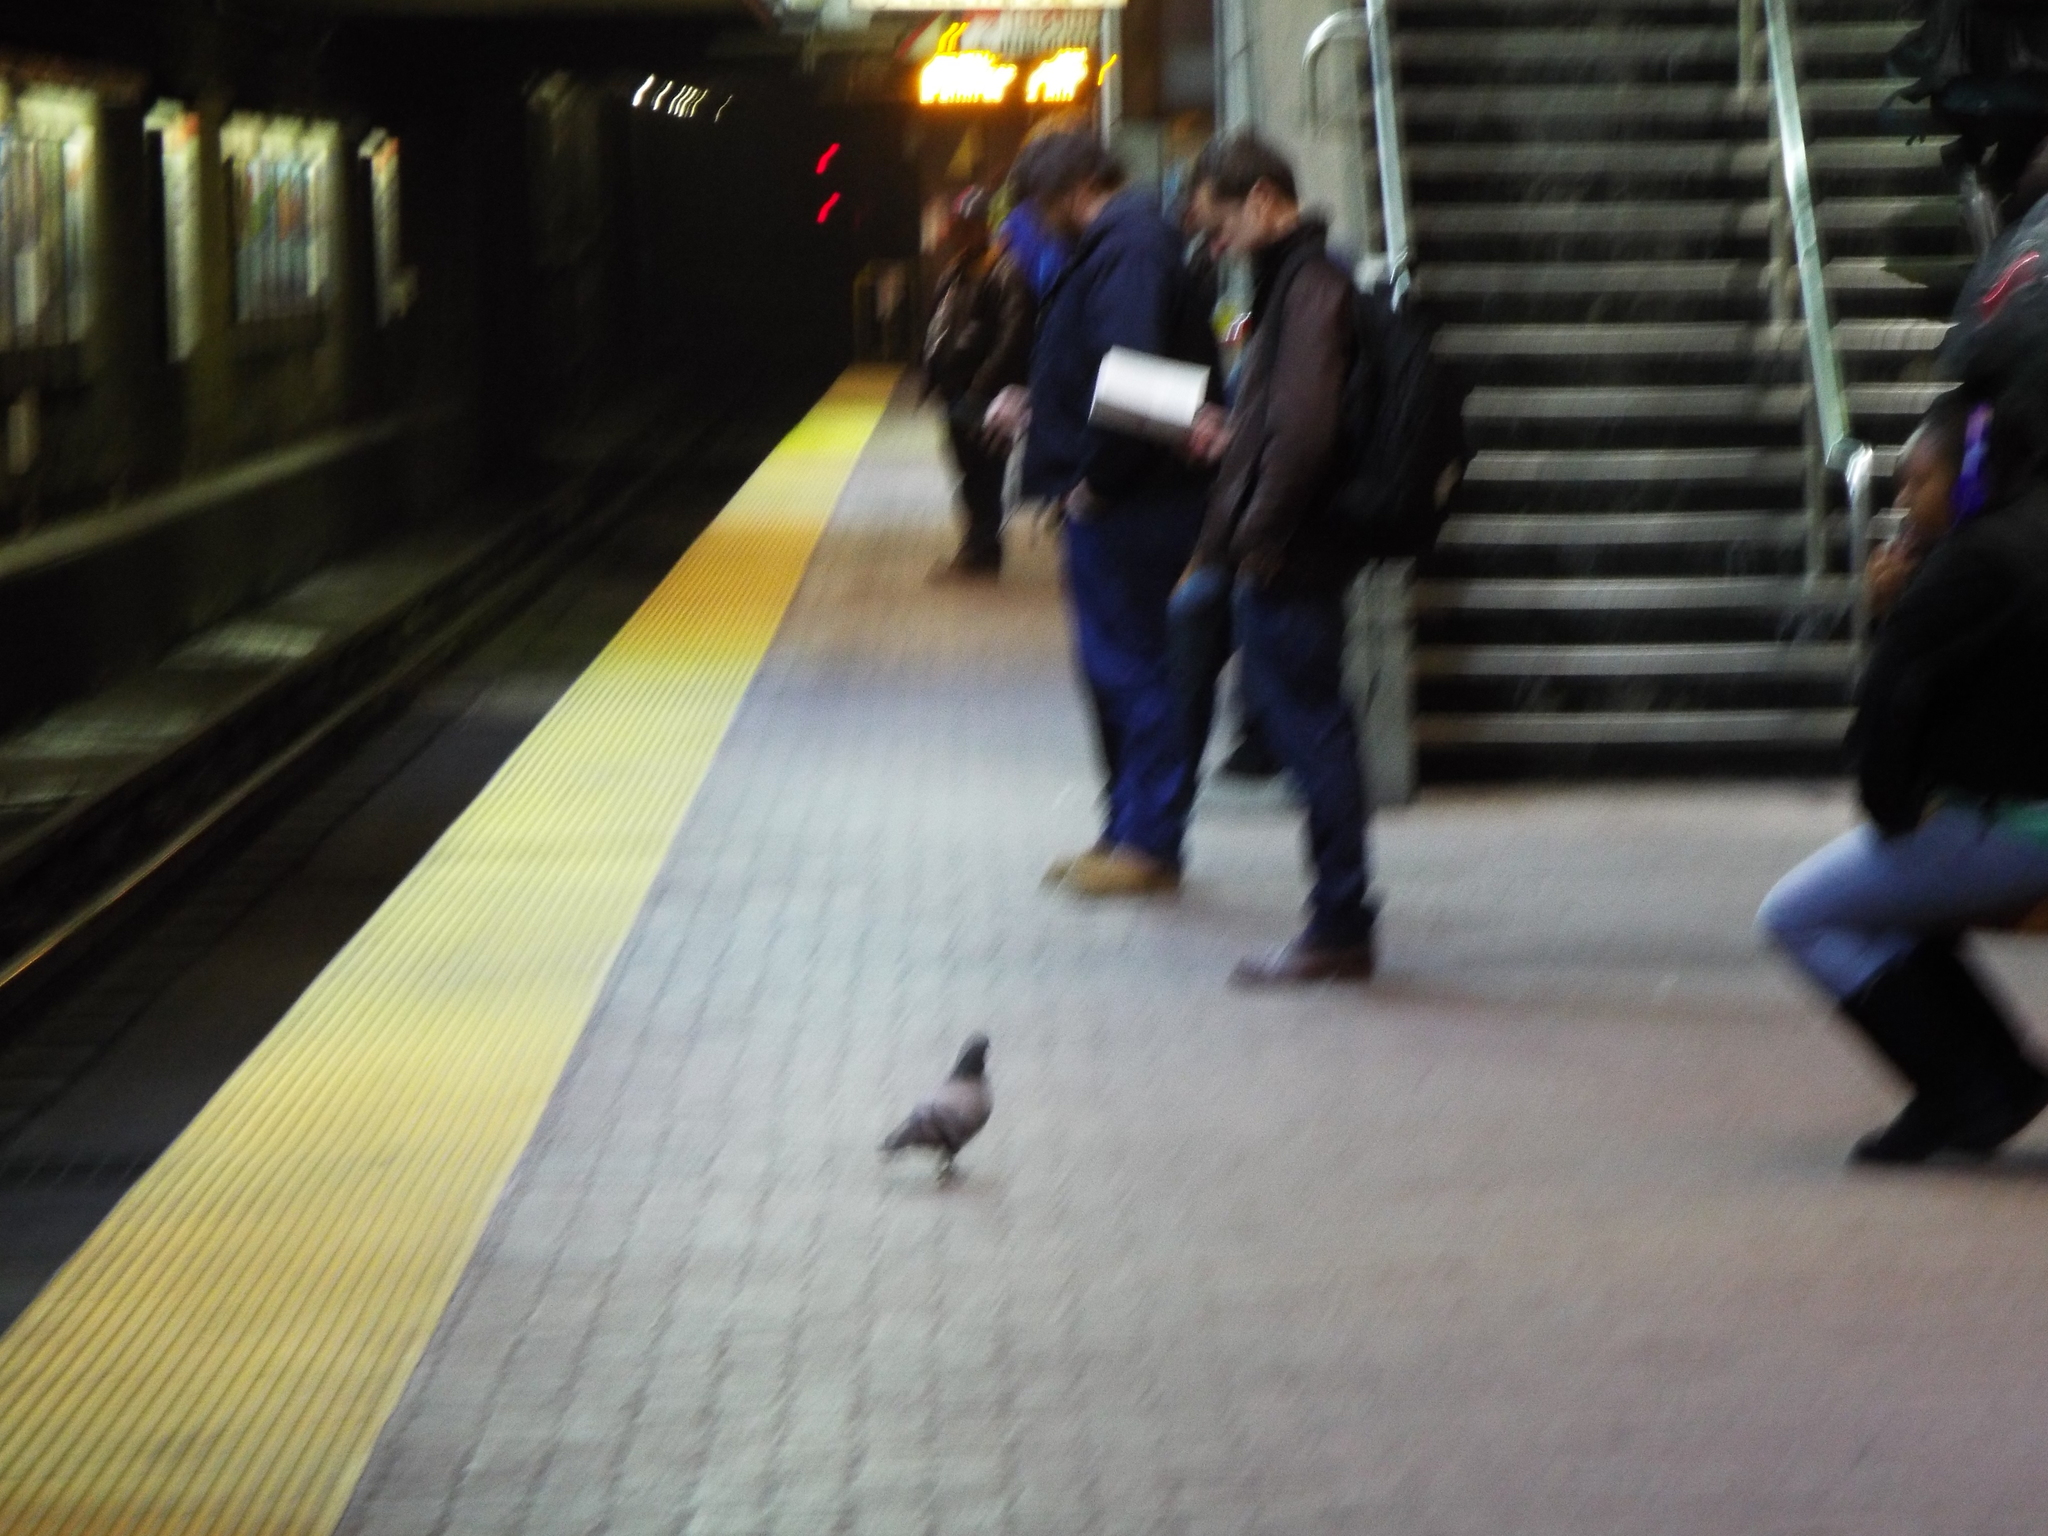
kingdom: Animalia
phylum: Chordata
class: Aves
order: Columbiformes
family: Columbidae
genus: Columba
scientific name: Columba livia
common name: Rock pigeon
